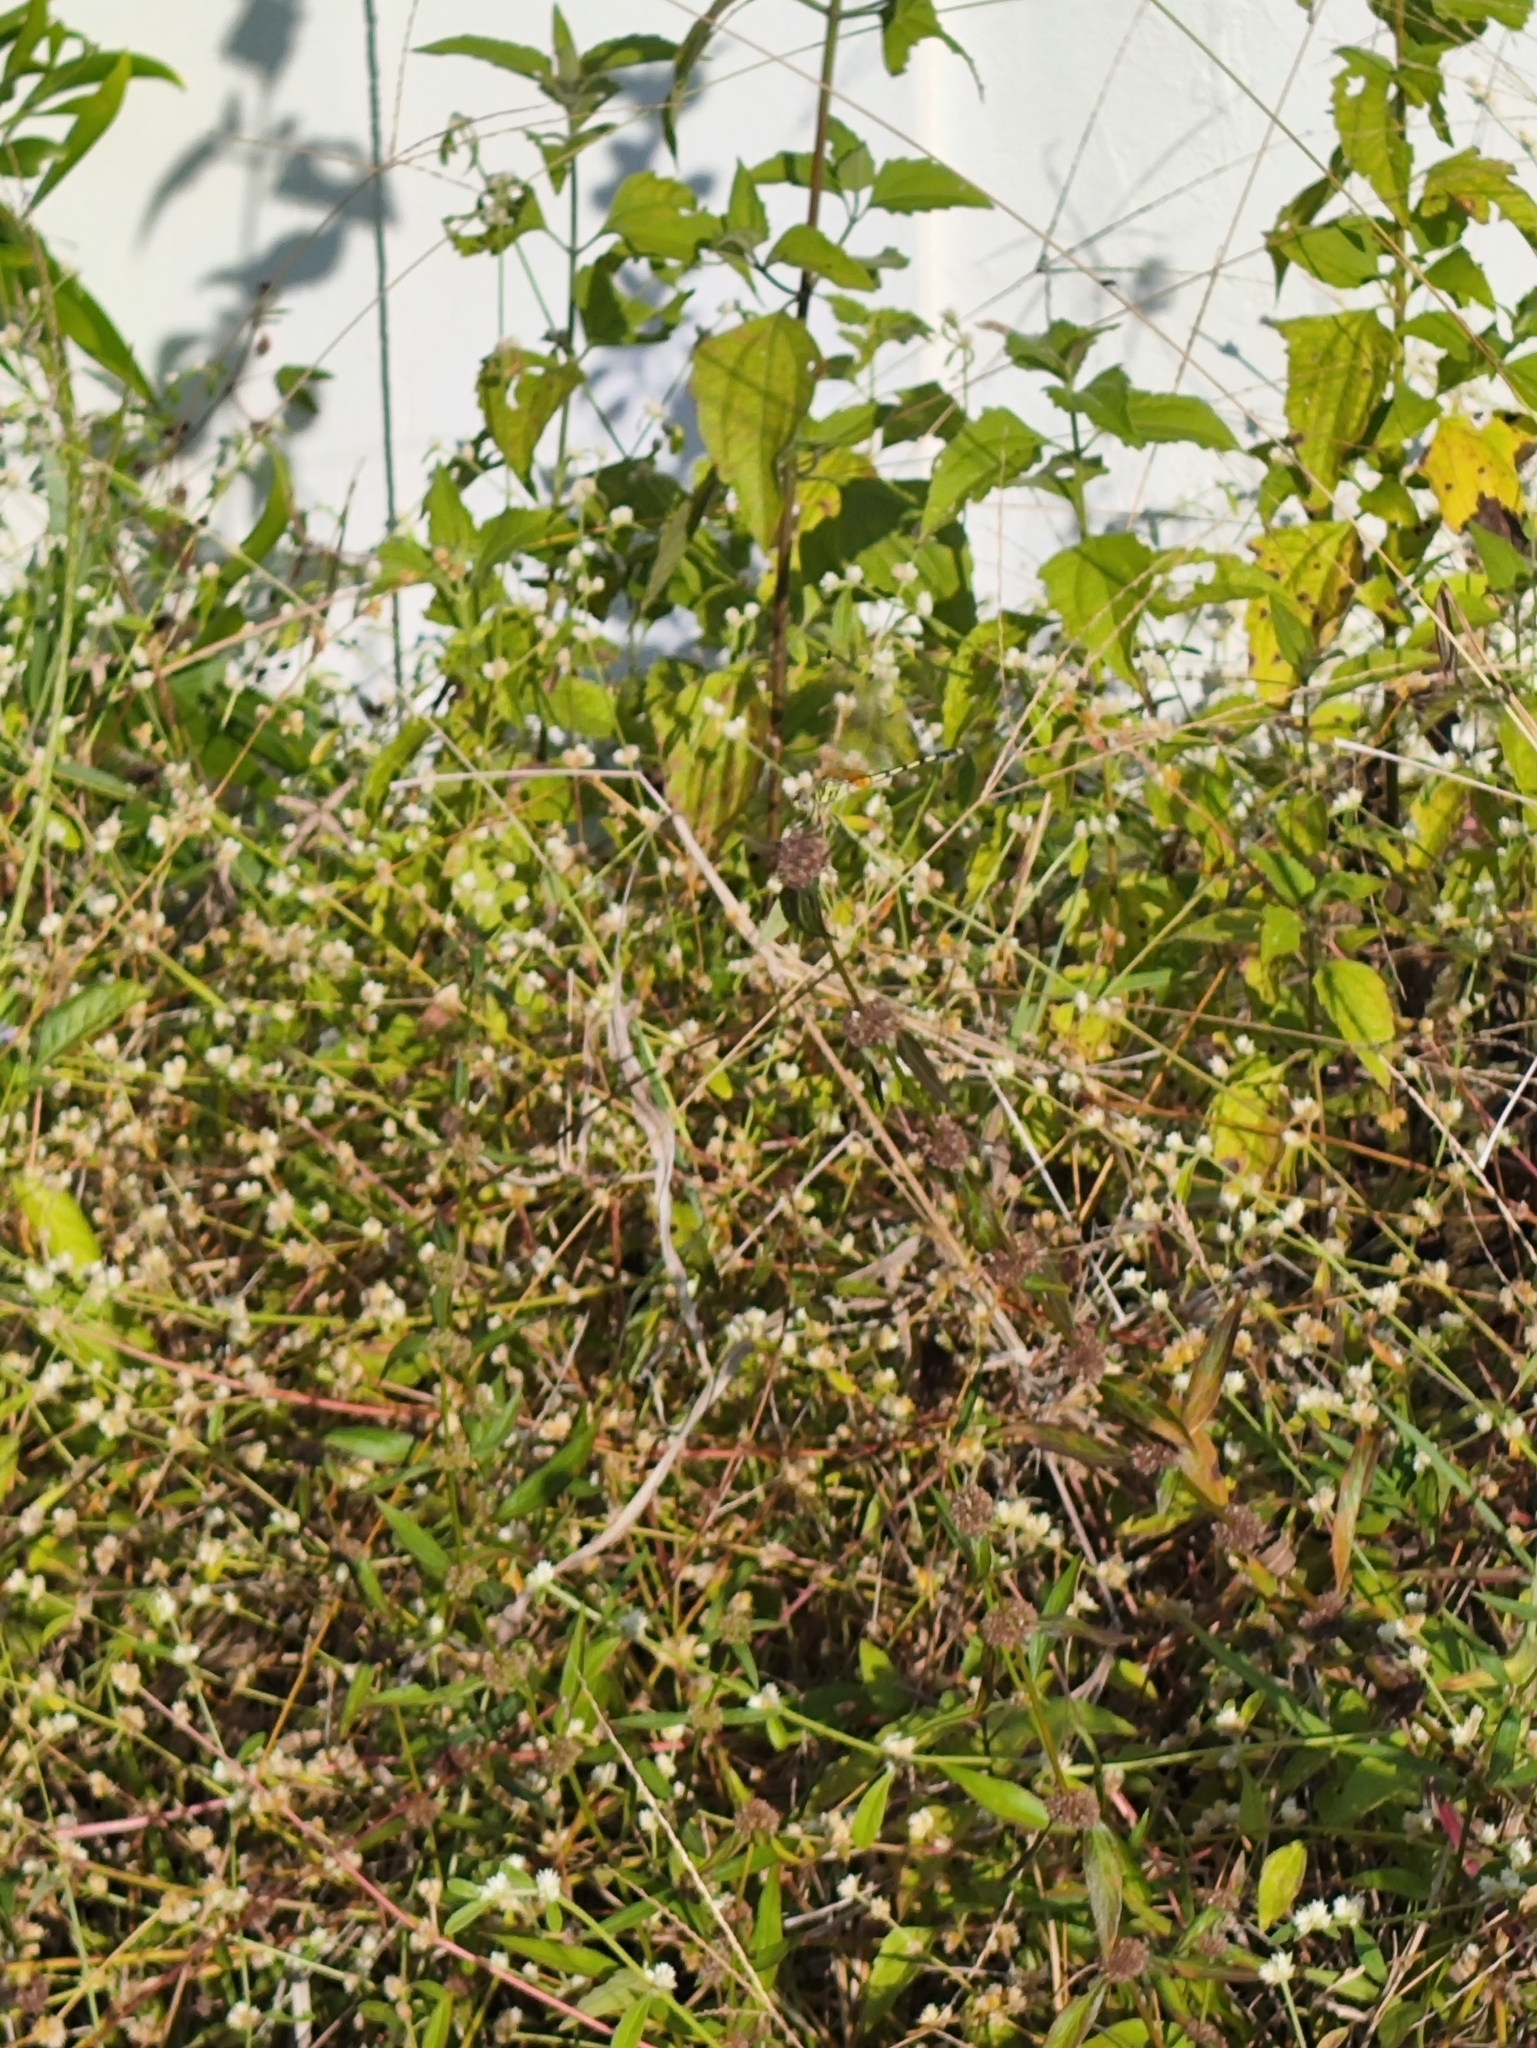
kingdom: Animalia
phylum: Arthropoda
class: Insecta
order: Odonata
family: Libellulidae
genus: Trithemis
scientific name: Trithemis pallidinervis
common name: Dancing dropwing
